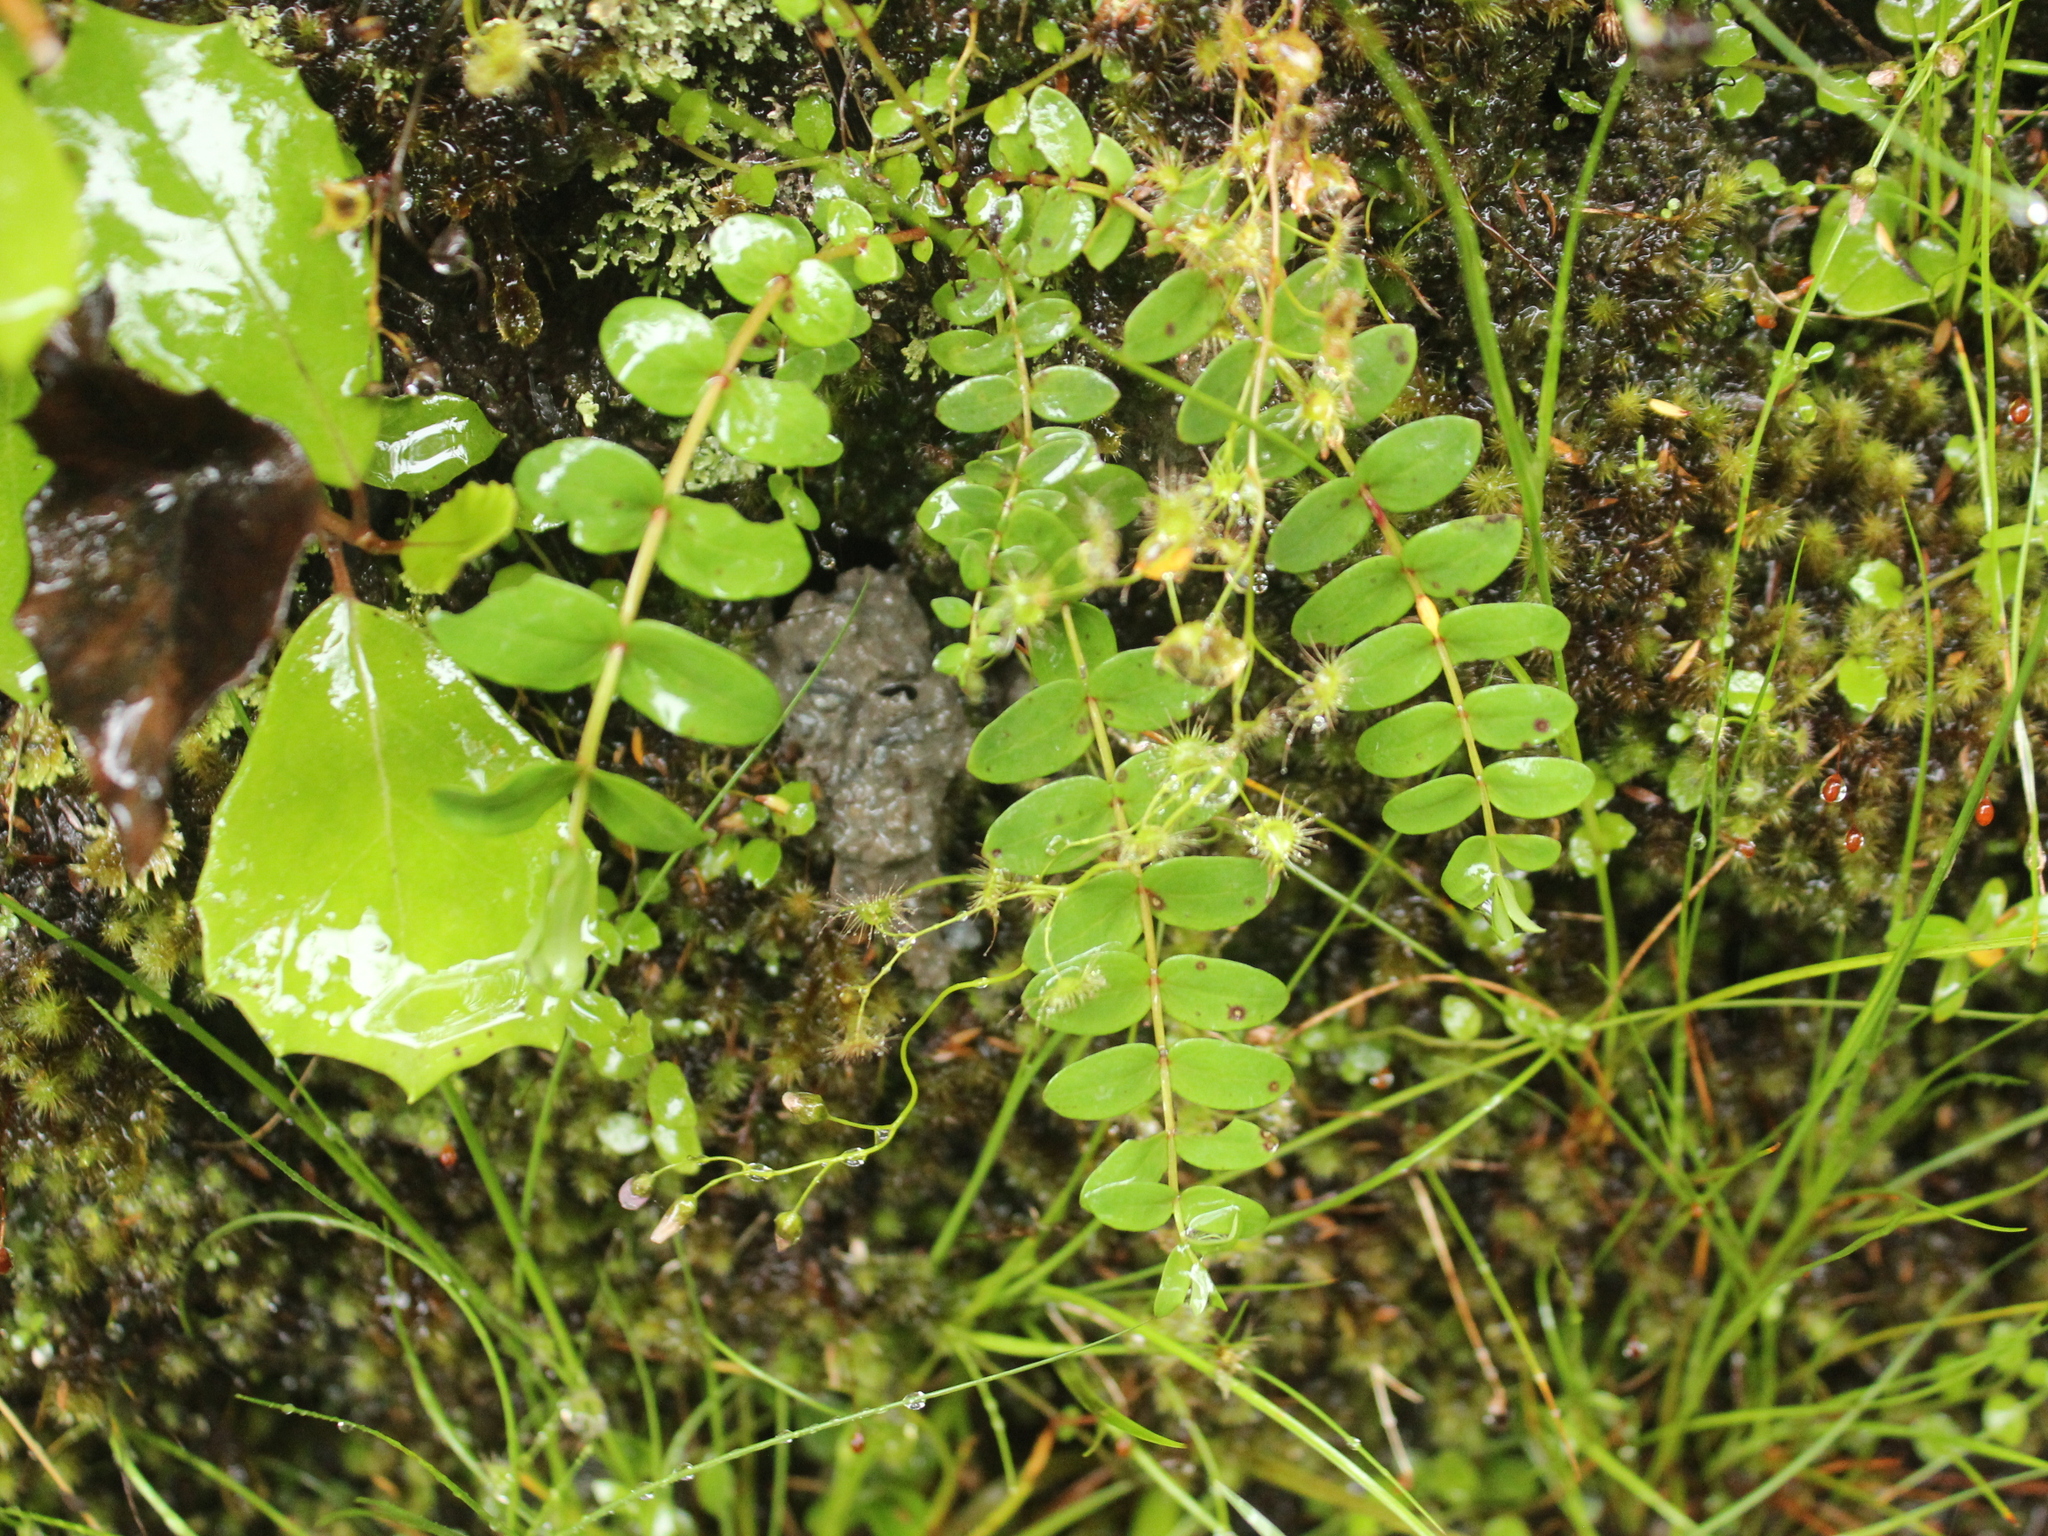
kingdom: Plantae
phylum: Tracheophyta
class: Magnoliopsida
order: Cucurbitales
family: Coriariaceae
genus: Coriaria
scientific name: Coriaria arborea
